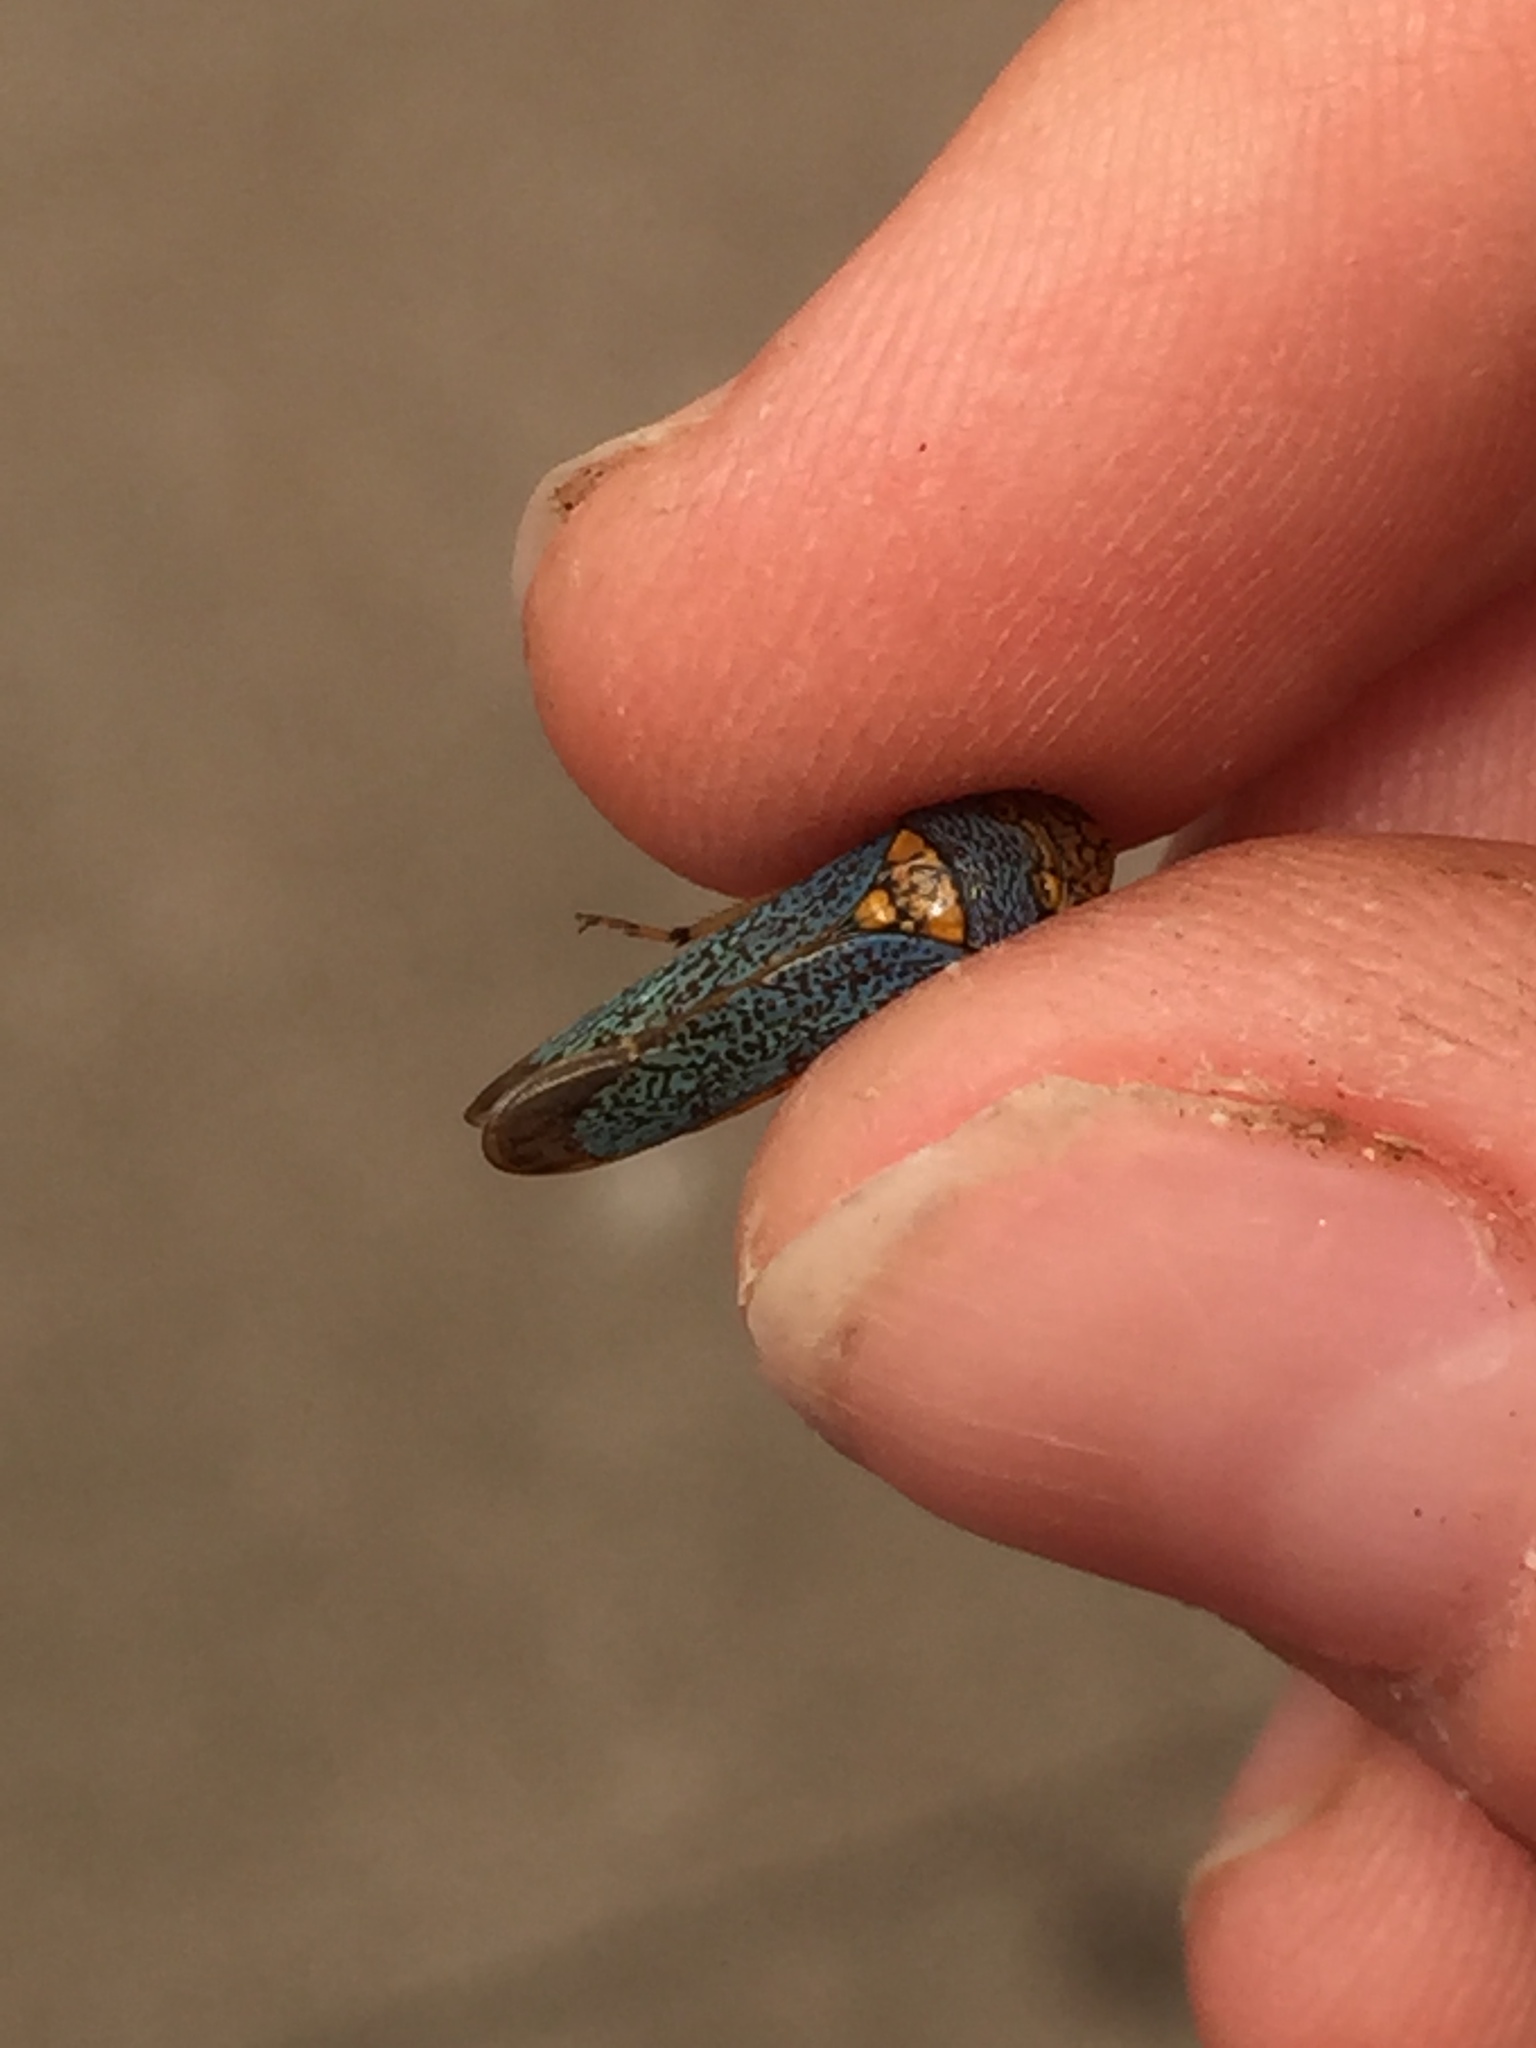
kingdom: Animalia
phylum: Arthropoda
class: Insecta
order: Hemiptera
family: Cicadellidae
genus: Oncometopia
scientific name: Oncometopia orbona
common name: Broad-headed sharpshooter
